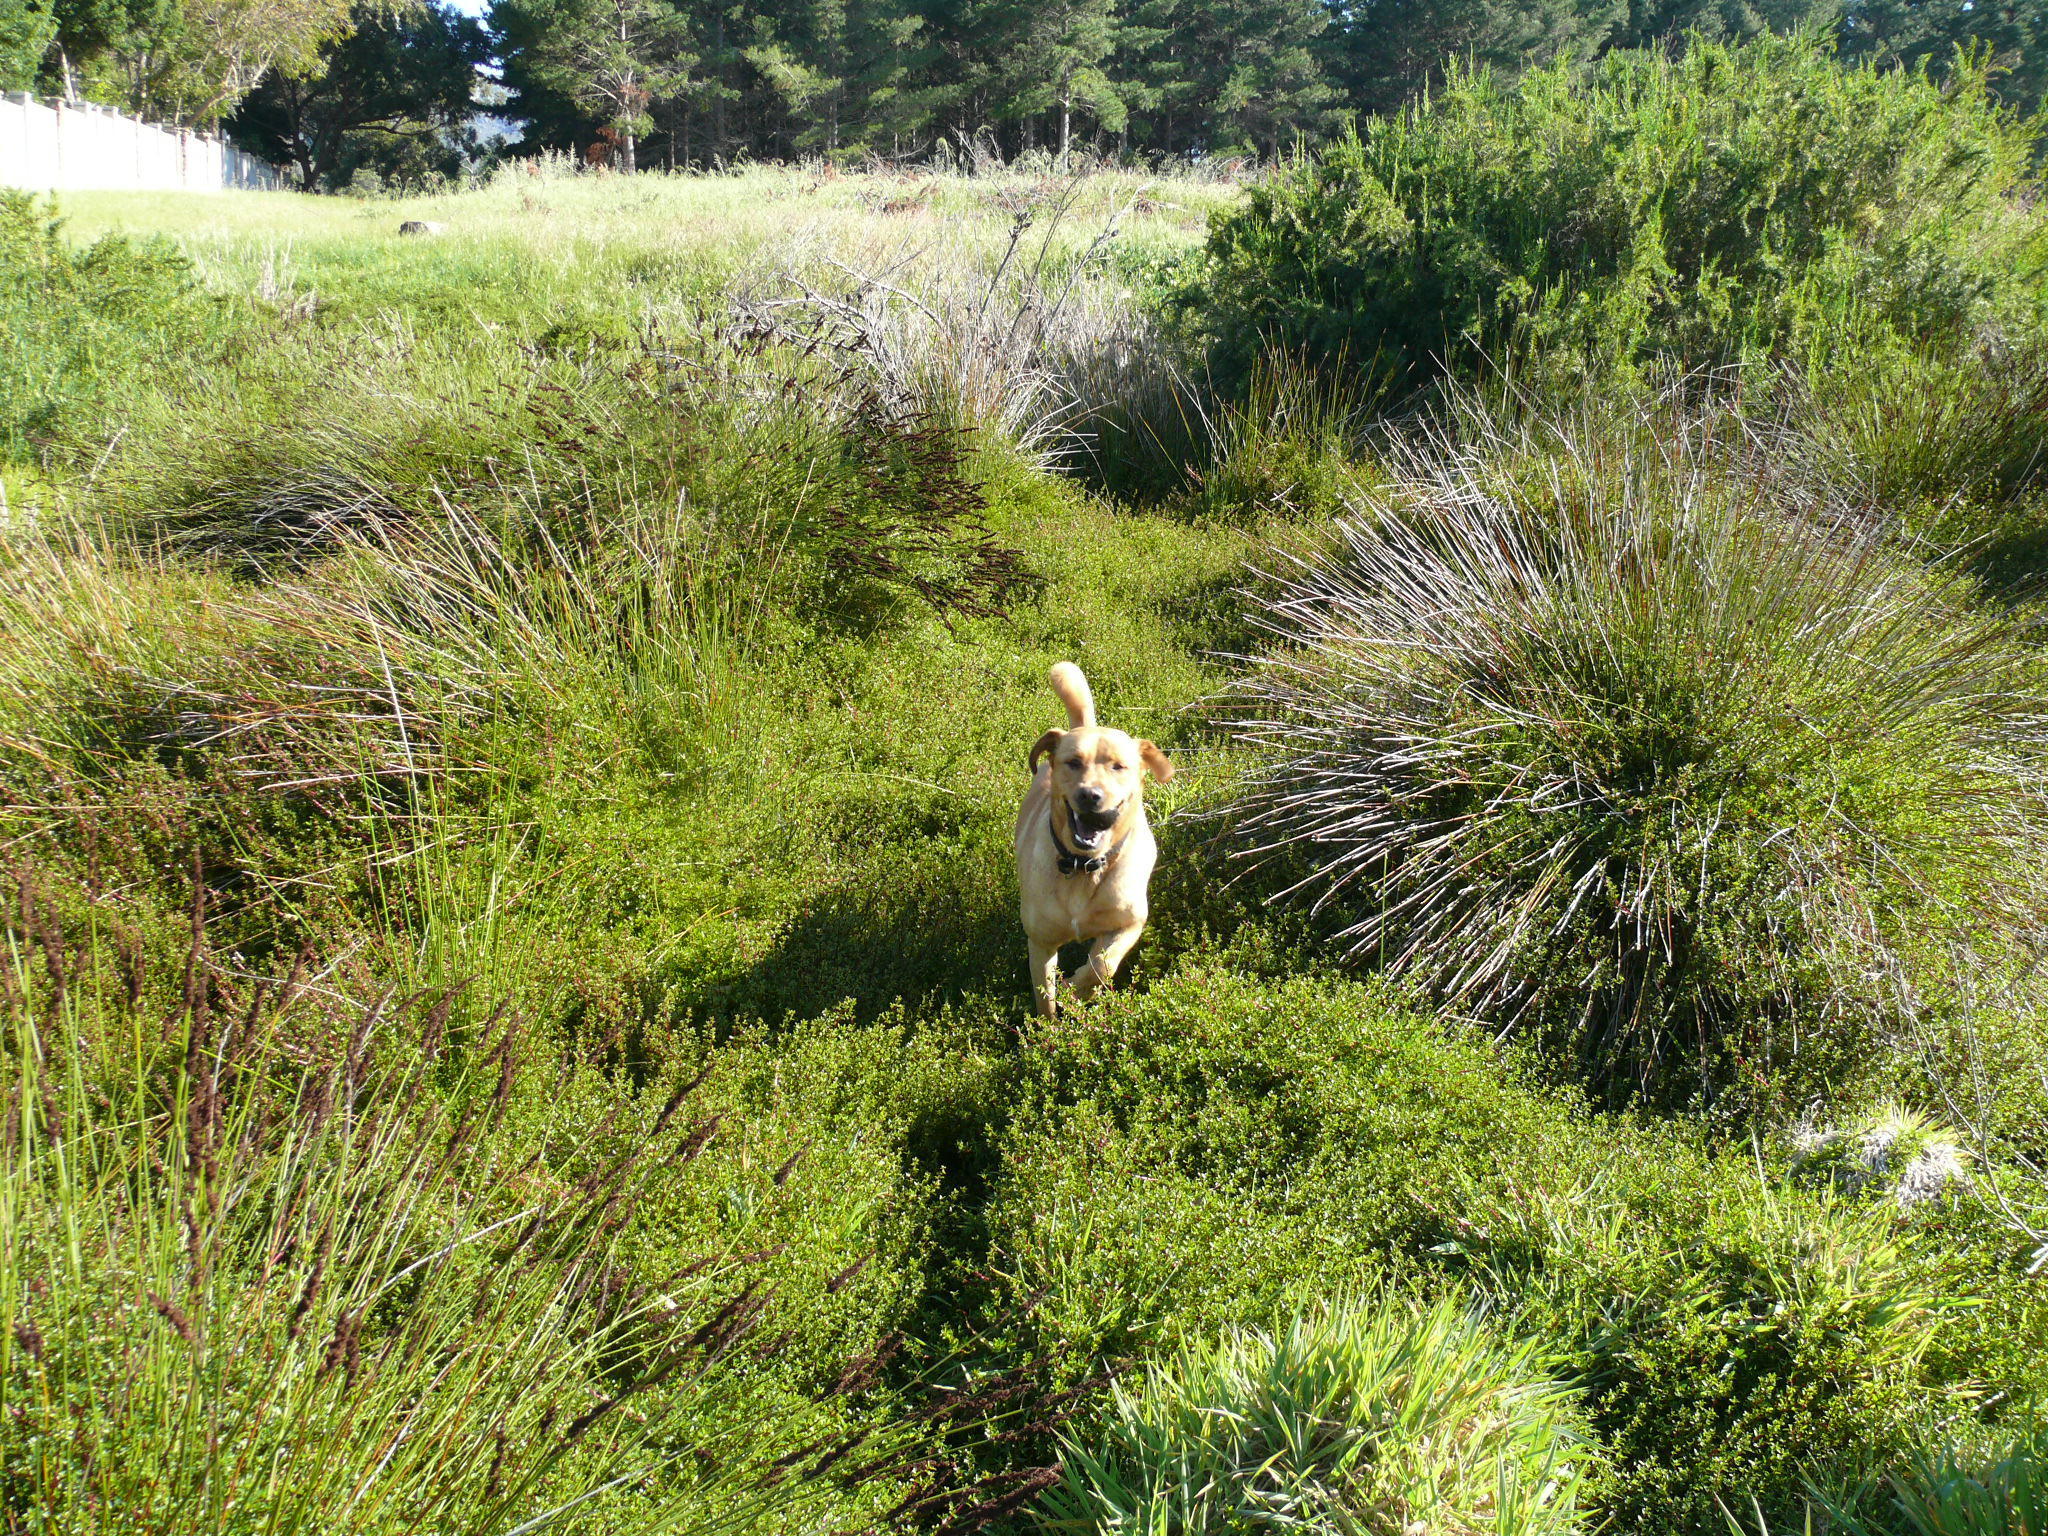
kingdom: Plantae
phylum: Tracheophyta
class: Magnoliopsida
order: Rosales
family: Rosaceae
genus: Cliffortia
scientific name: Cliffortia ferruginea
